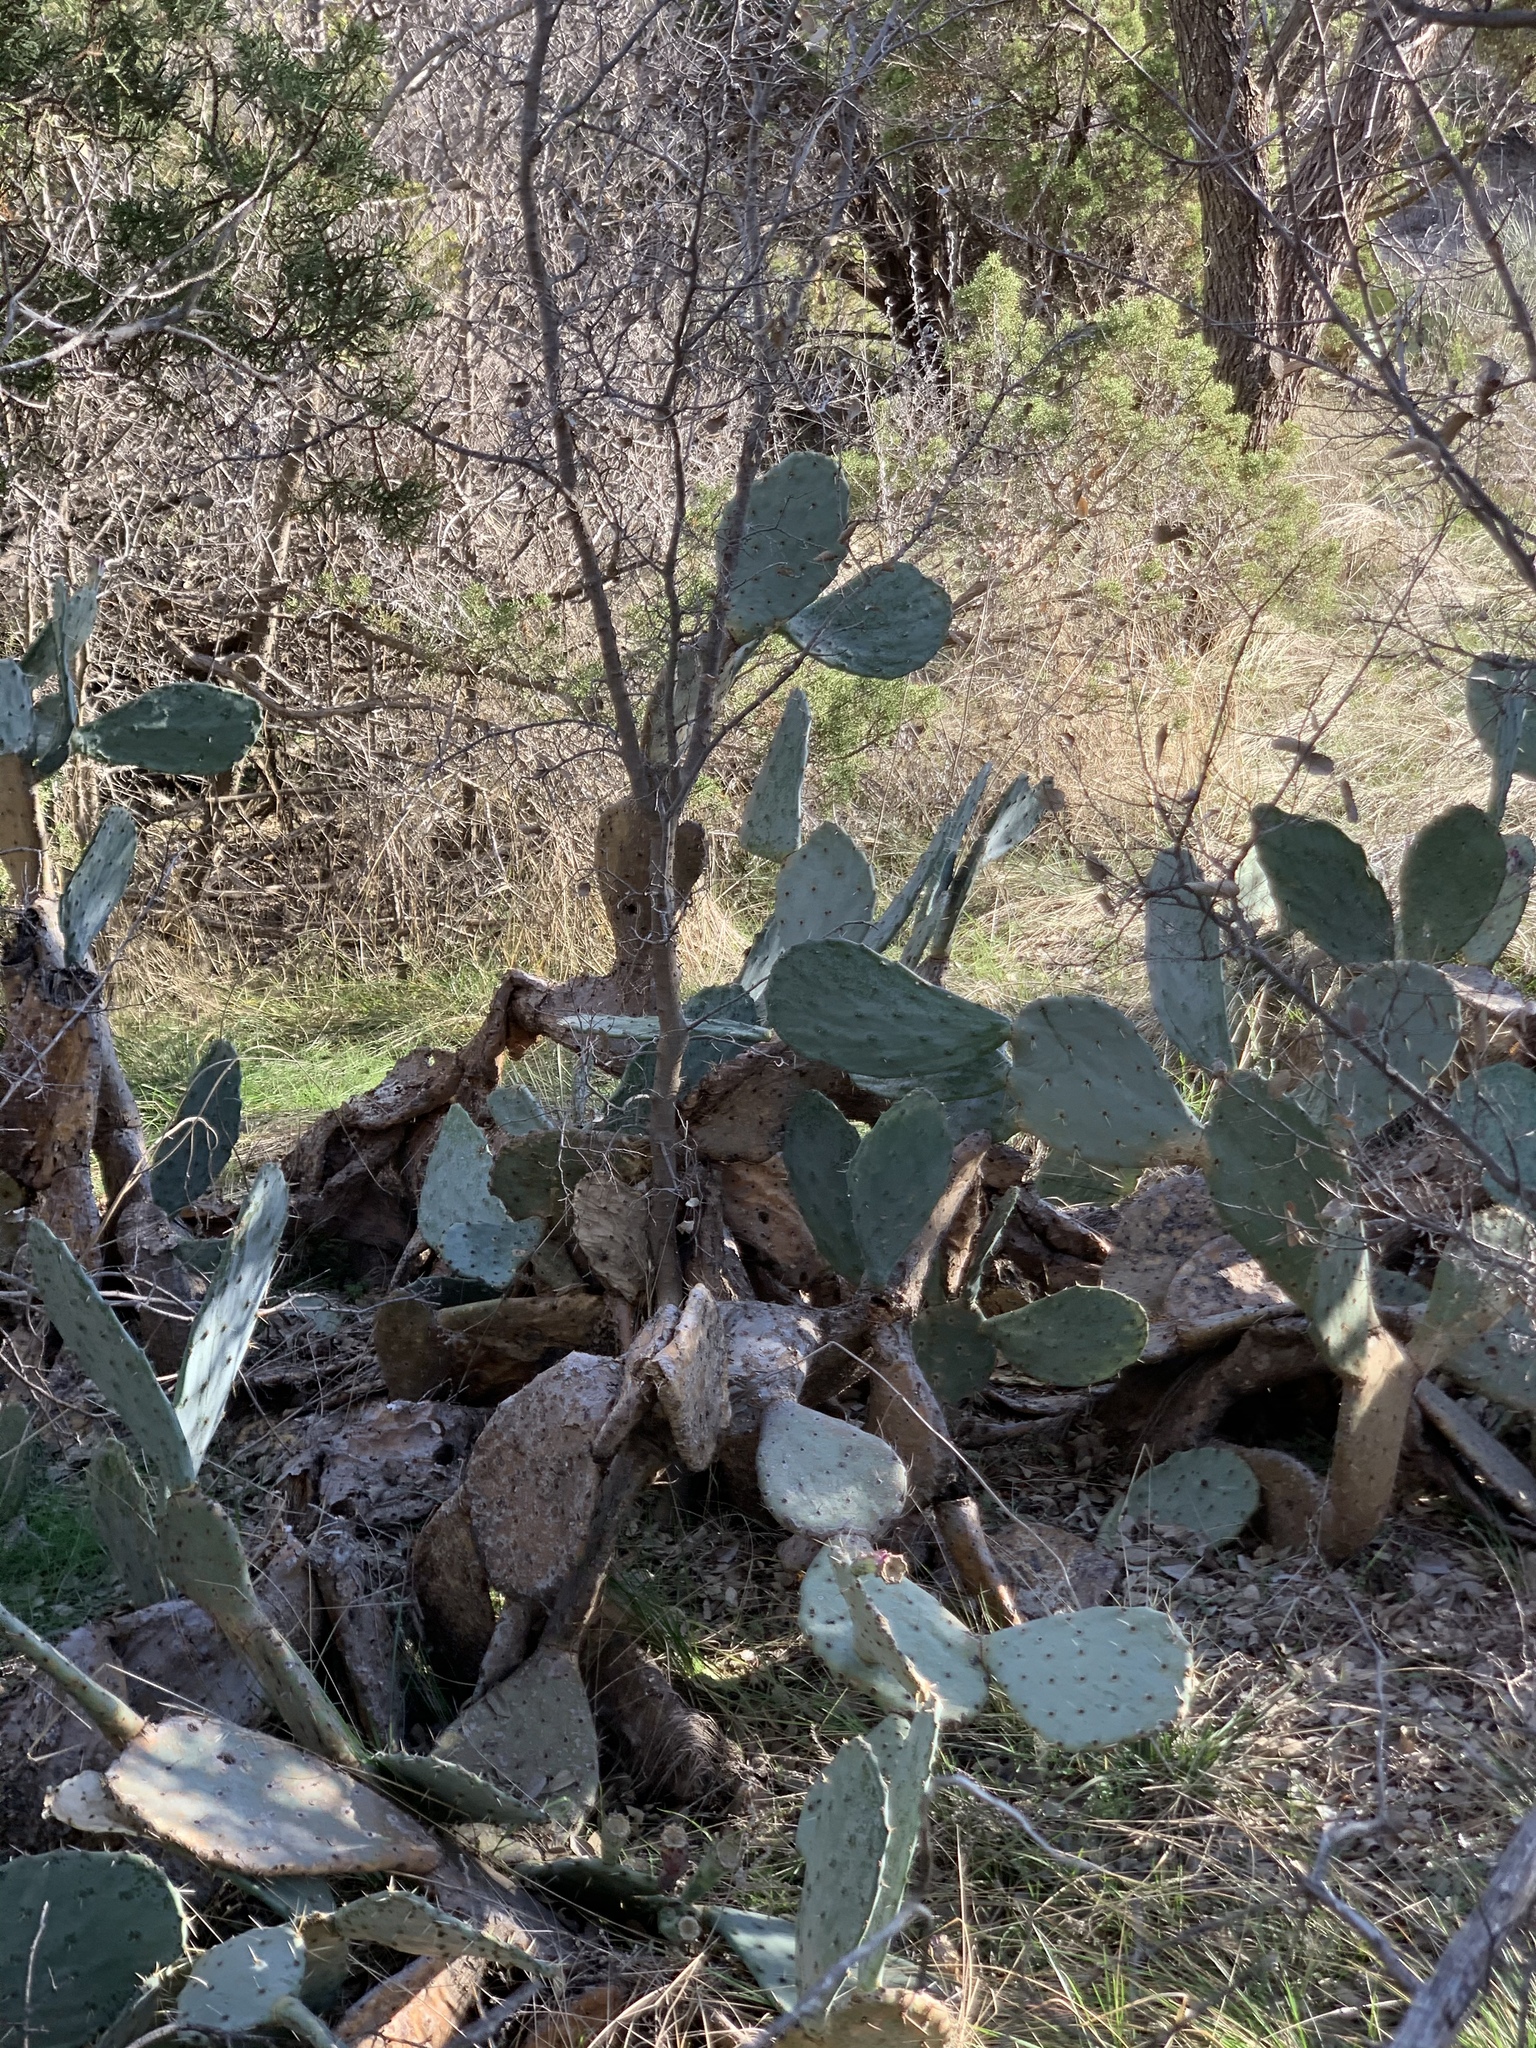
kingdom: Plantae
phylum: Tracheophyta
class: Magnoliopsida
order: Caryophyllales
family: Cactaceae
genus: Opuntia
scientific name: Opuntia phaeacantha
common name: New mexico prickly-pear
